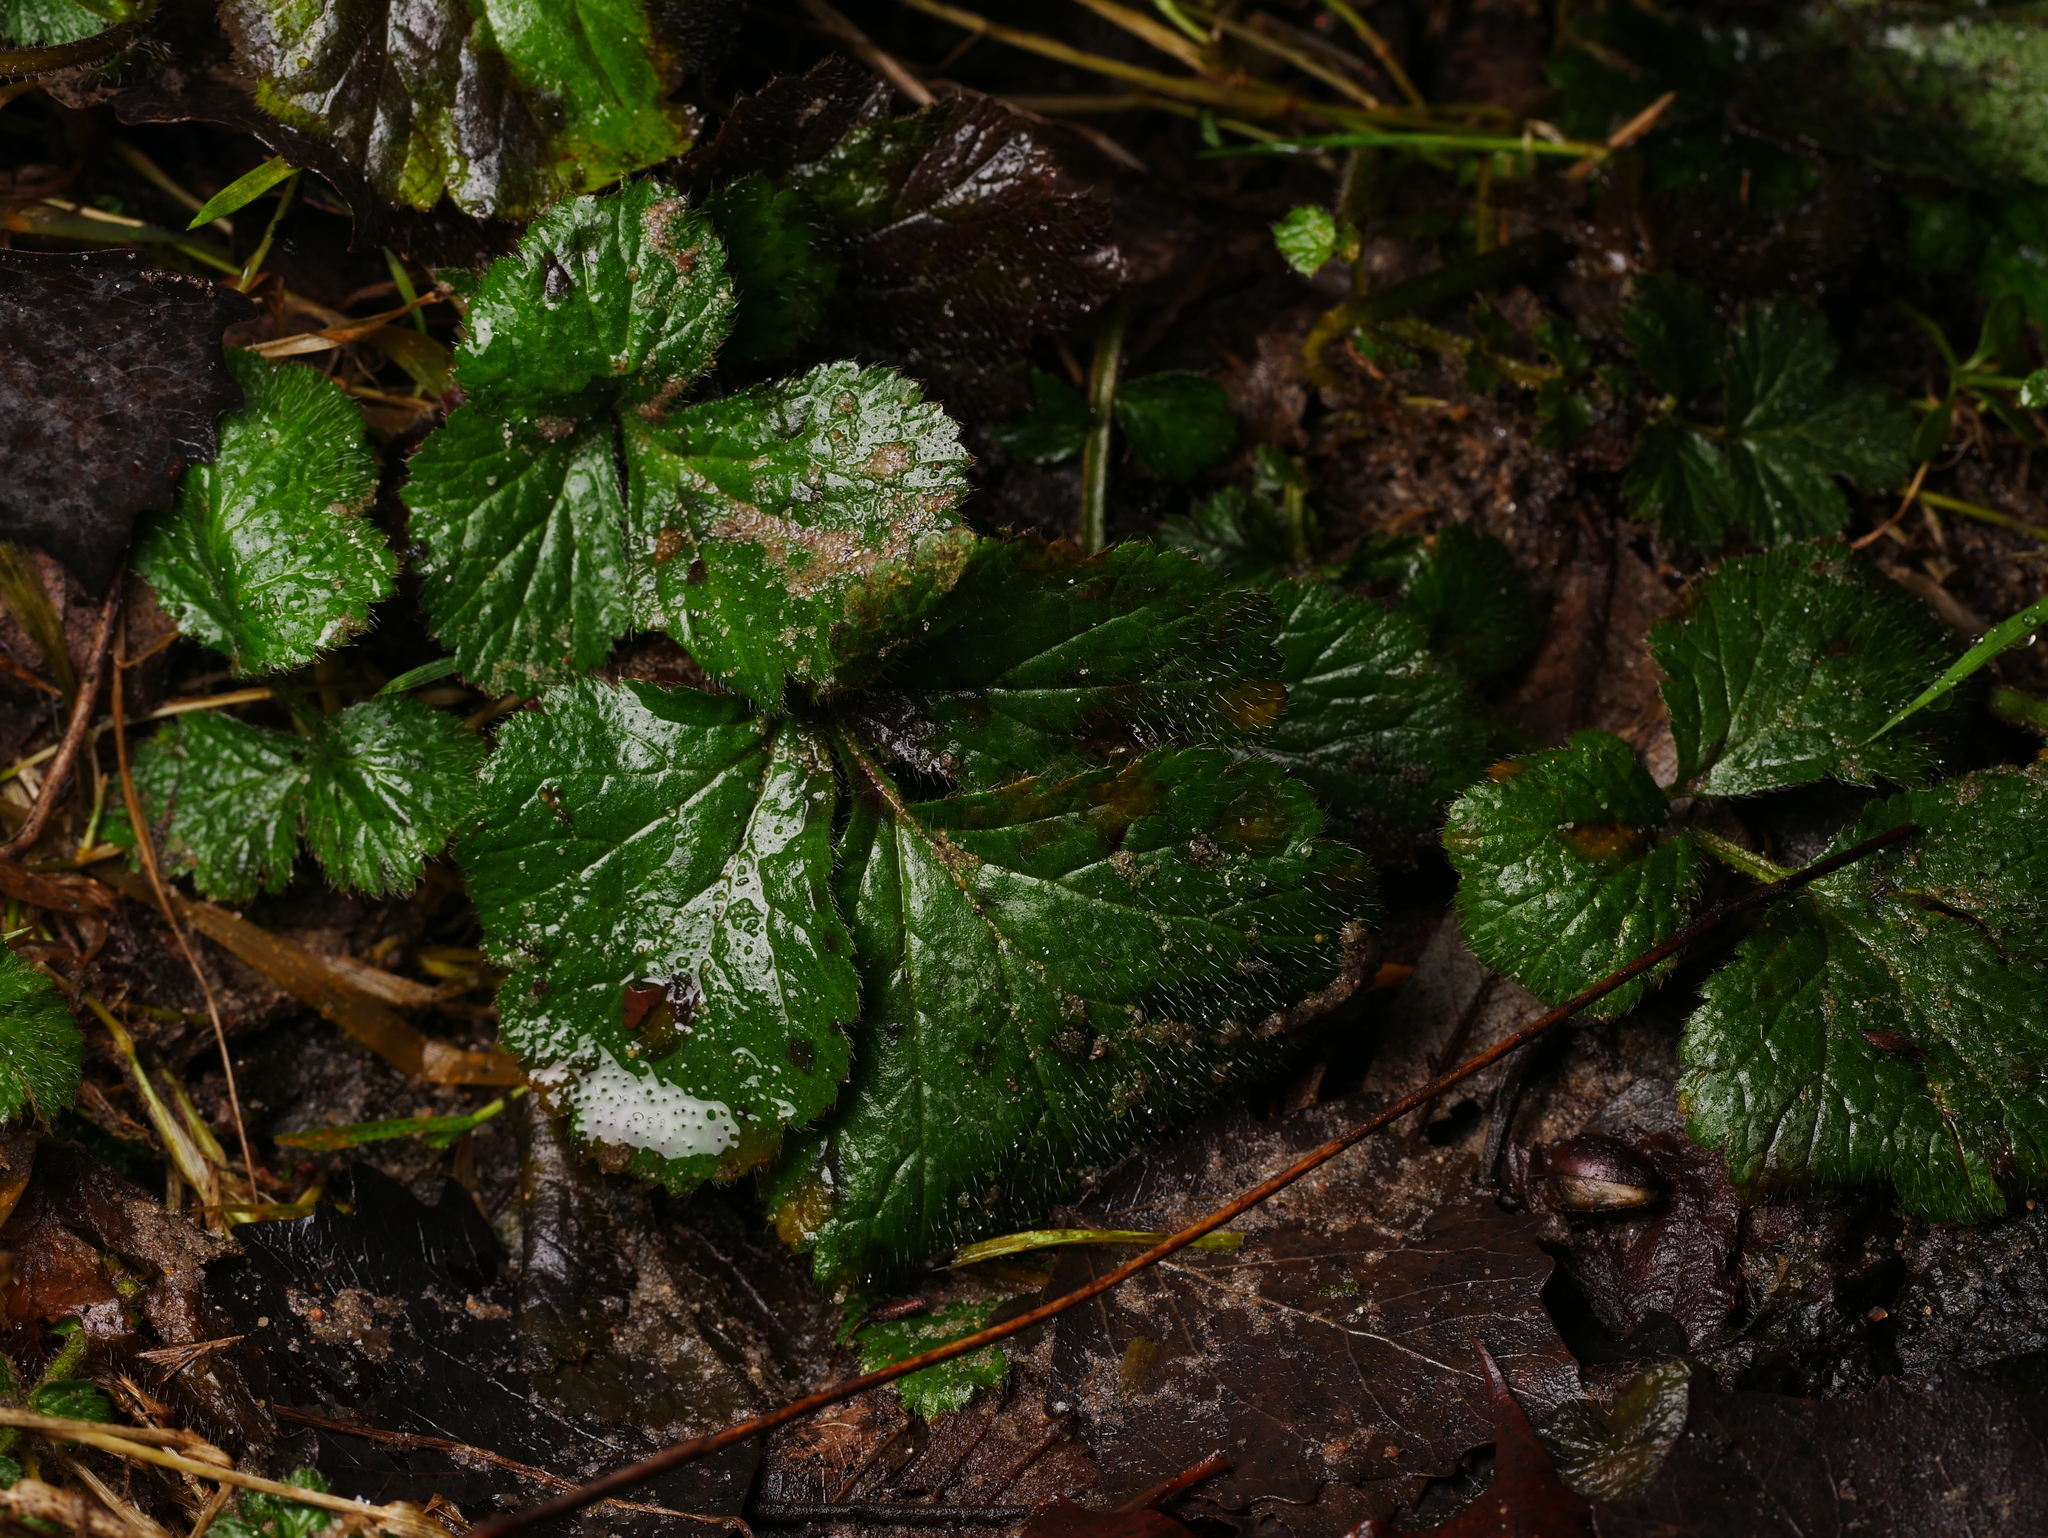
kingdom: Plantae
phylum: Tracheophyta
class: Magnoliopsida
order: Rosales
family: Rosaceae
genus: Geum
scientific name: Geum urbanum
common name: Wood avens
